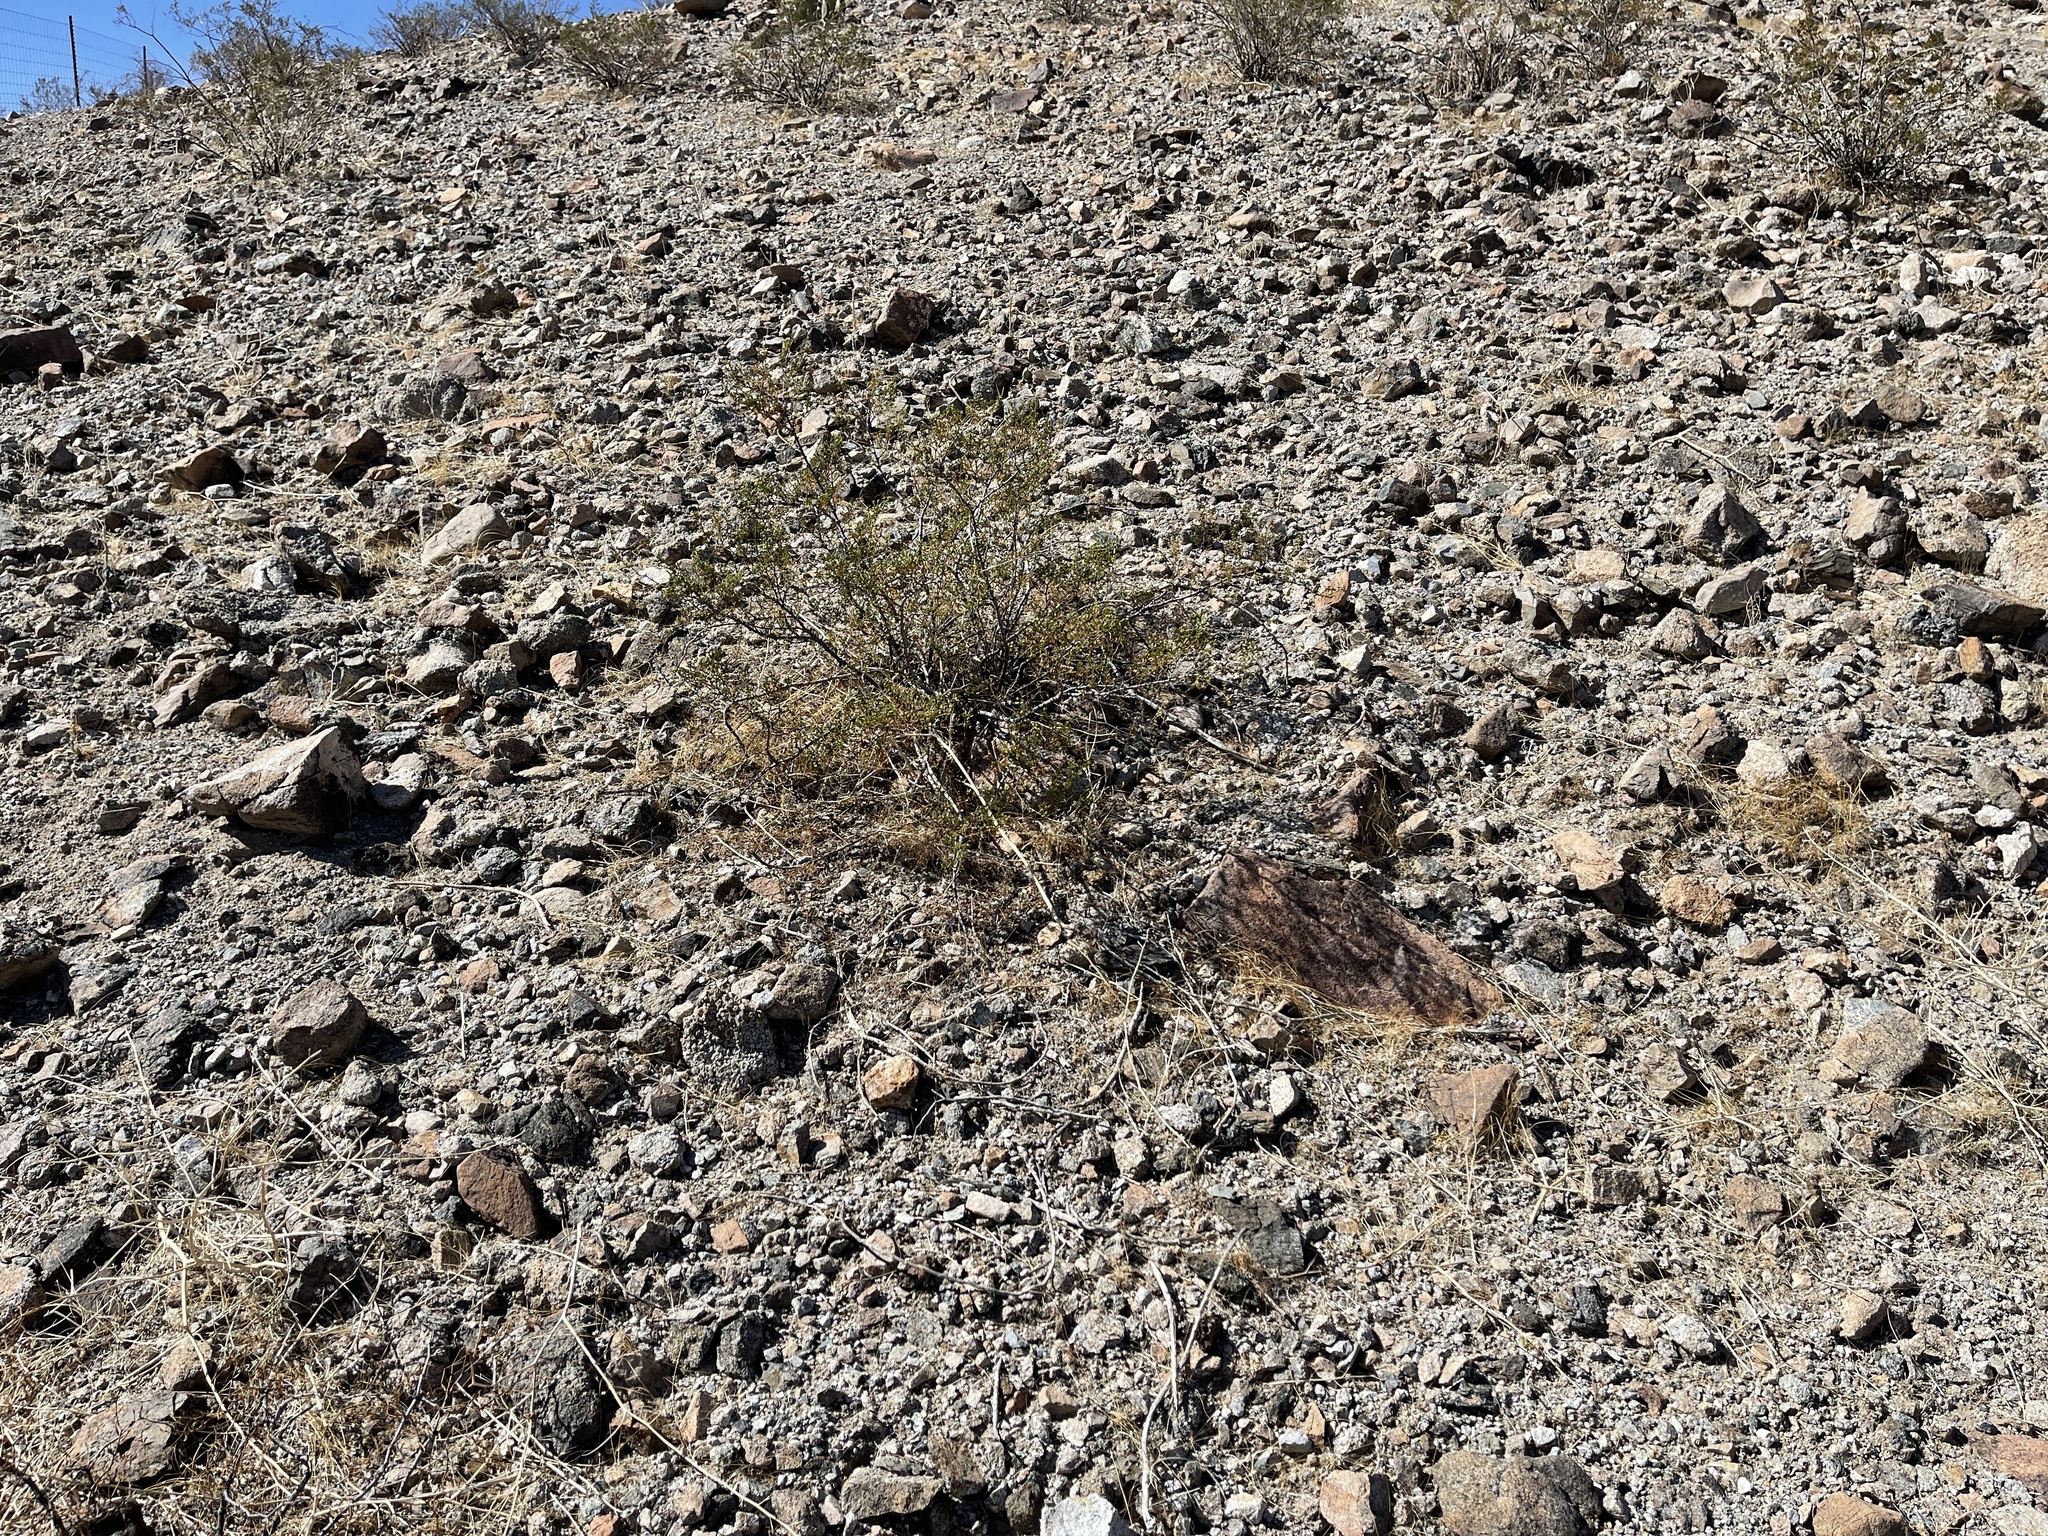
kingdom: Plantae
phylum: Tracheophyta
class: Magnoliopsida
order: Zygophyllales
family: Zygophyllaceae
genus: Larrea
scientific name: Larrea tridentata
